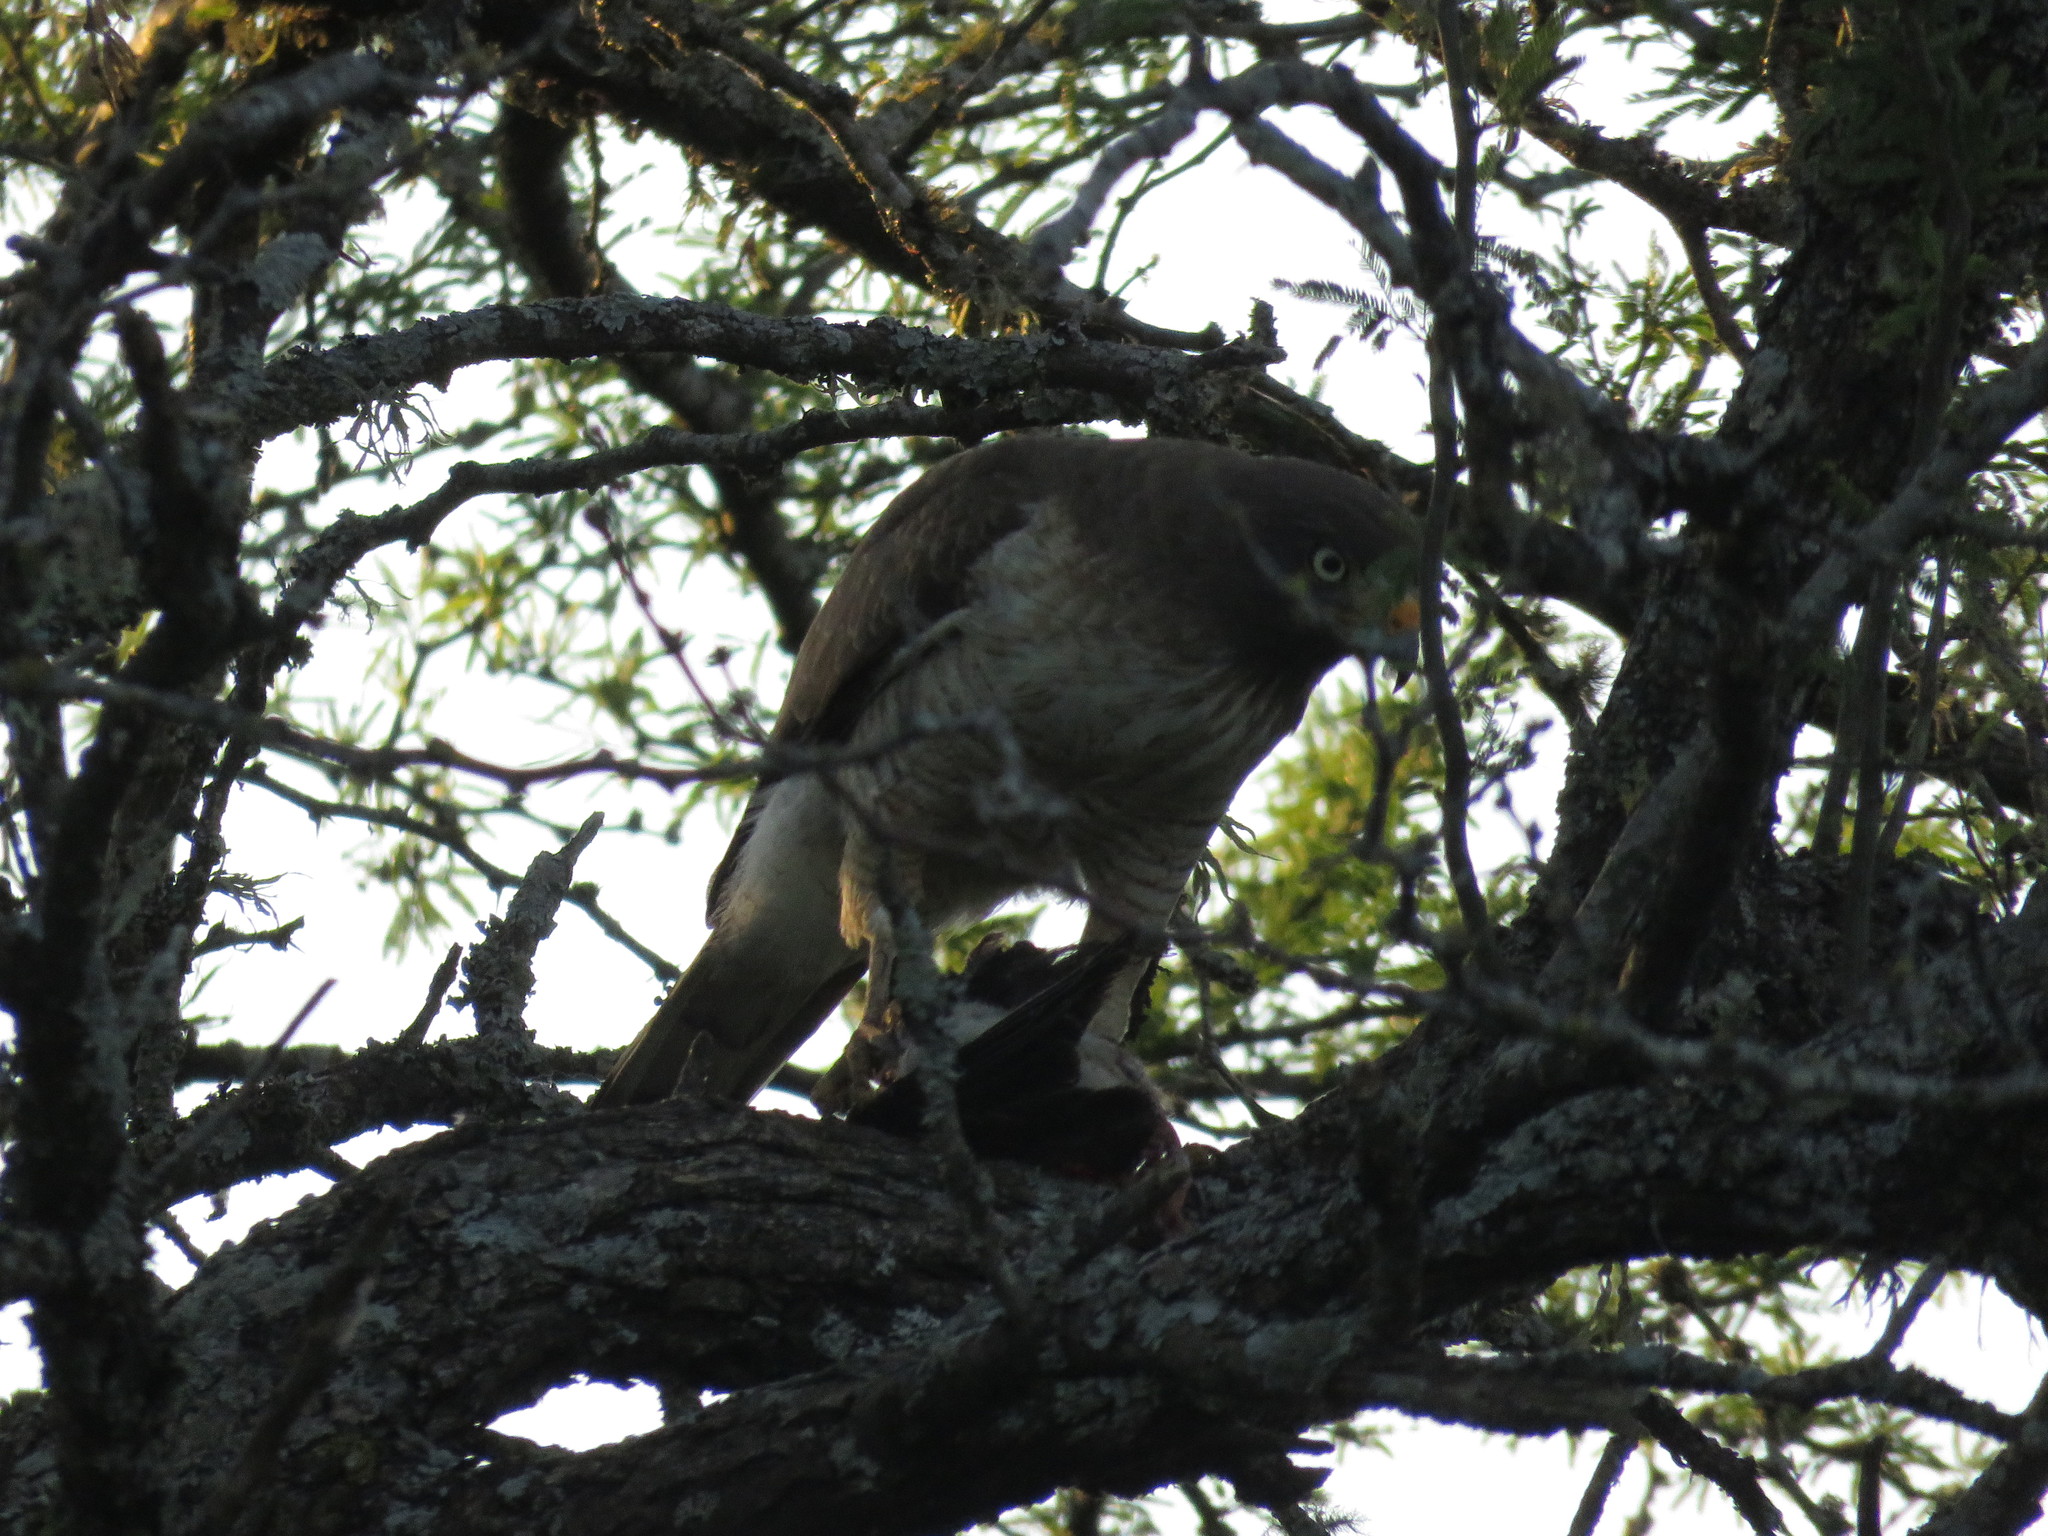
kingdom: Animalia
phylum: Chordata
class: Aves
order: Accipitriformes
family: Accipitridae
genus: Rupornis
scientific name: Rupornis magnirostris
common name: Roadside hawk
